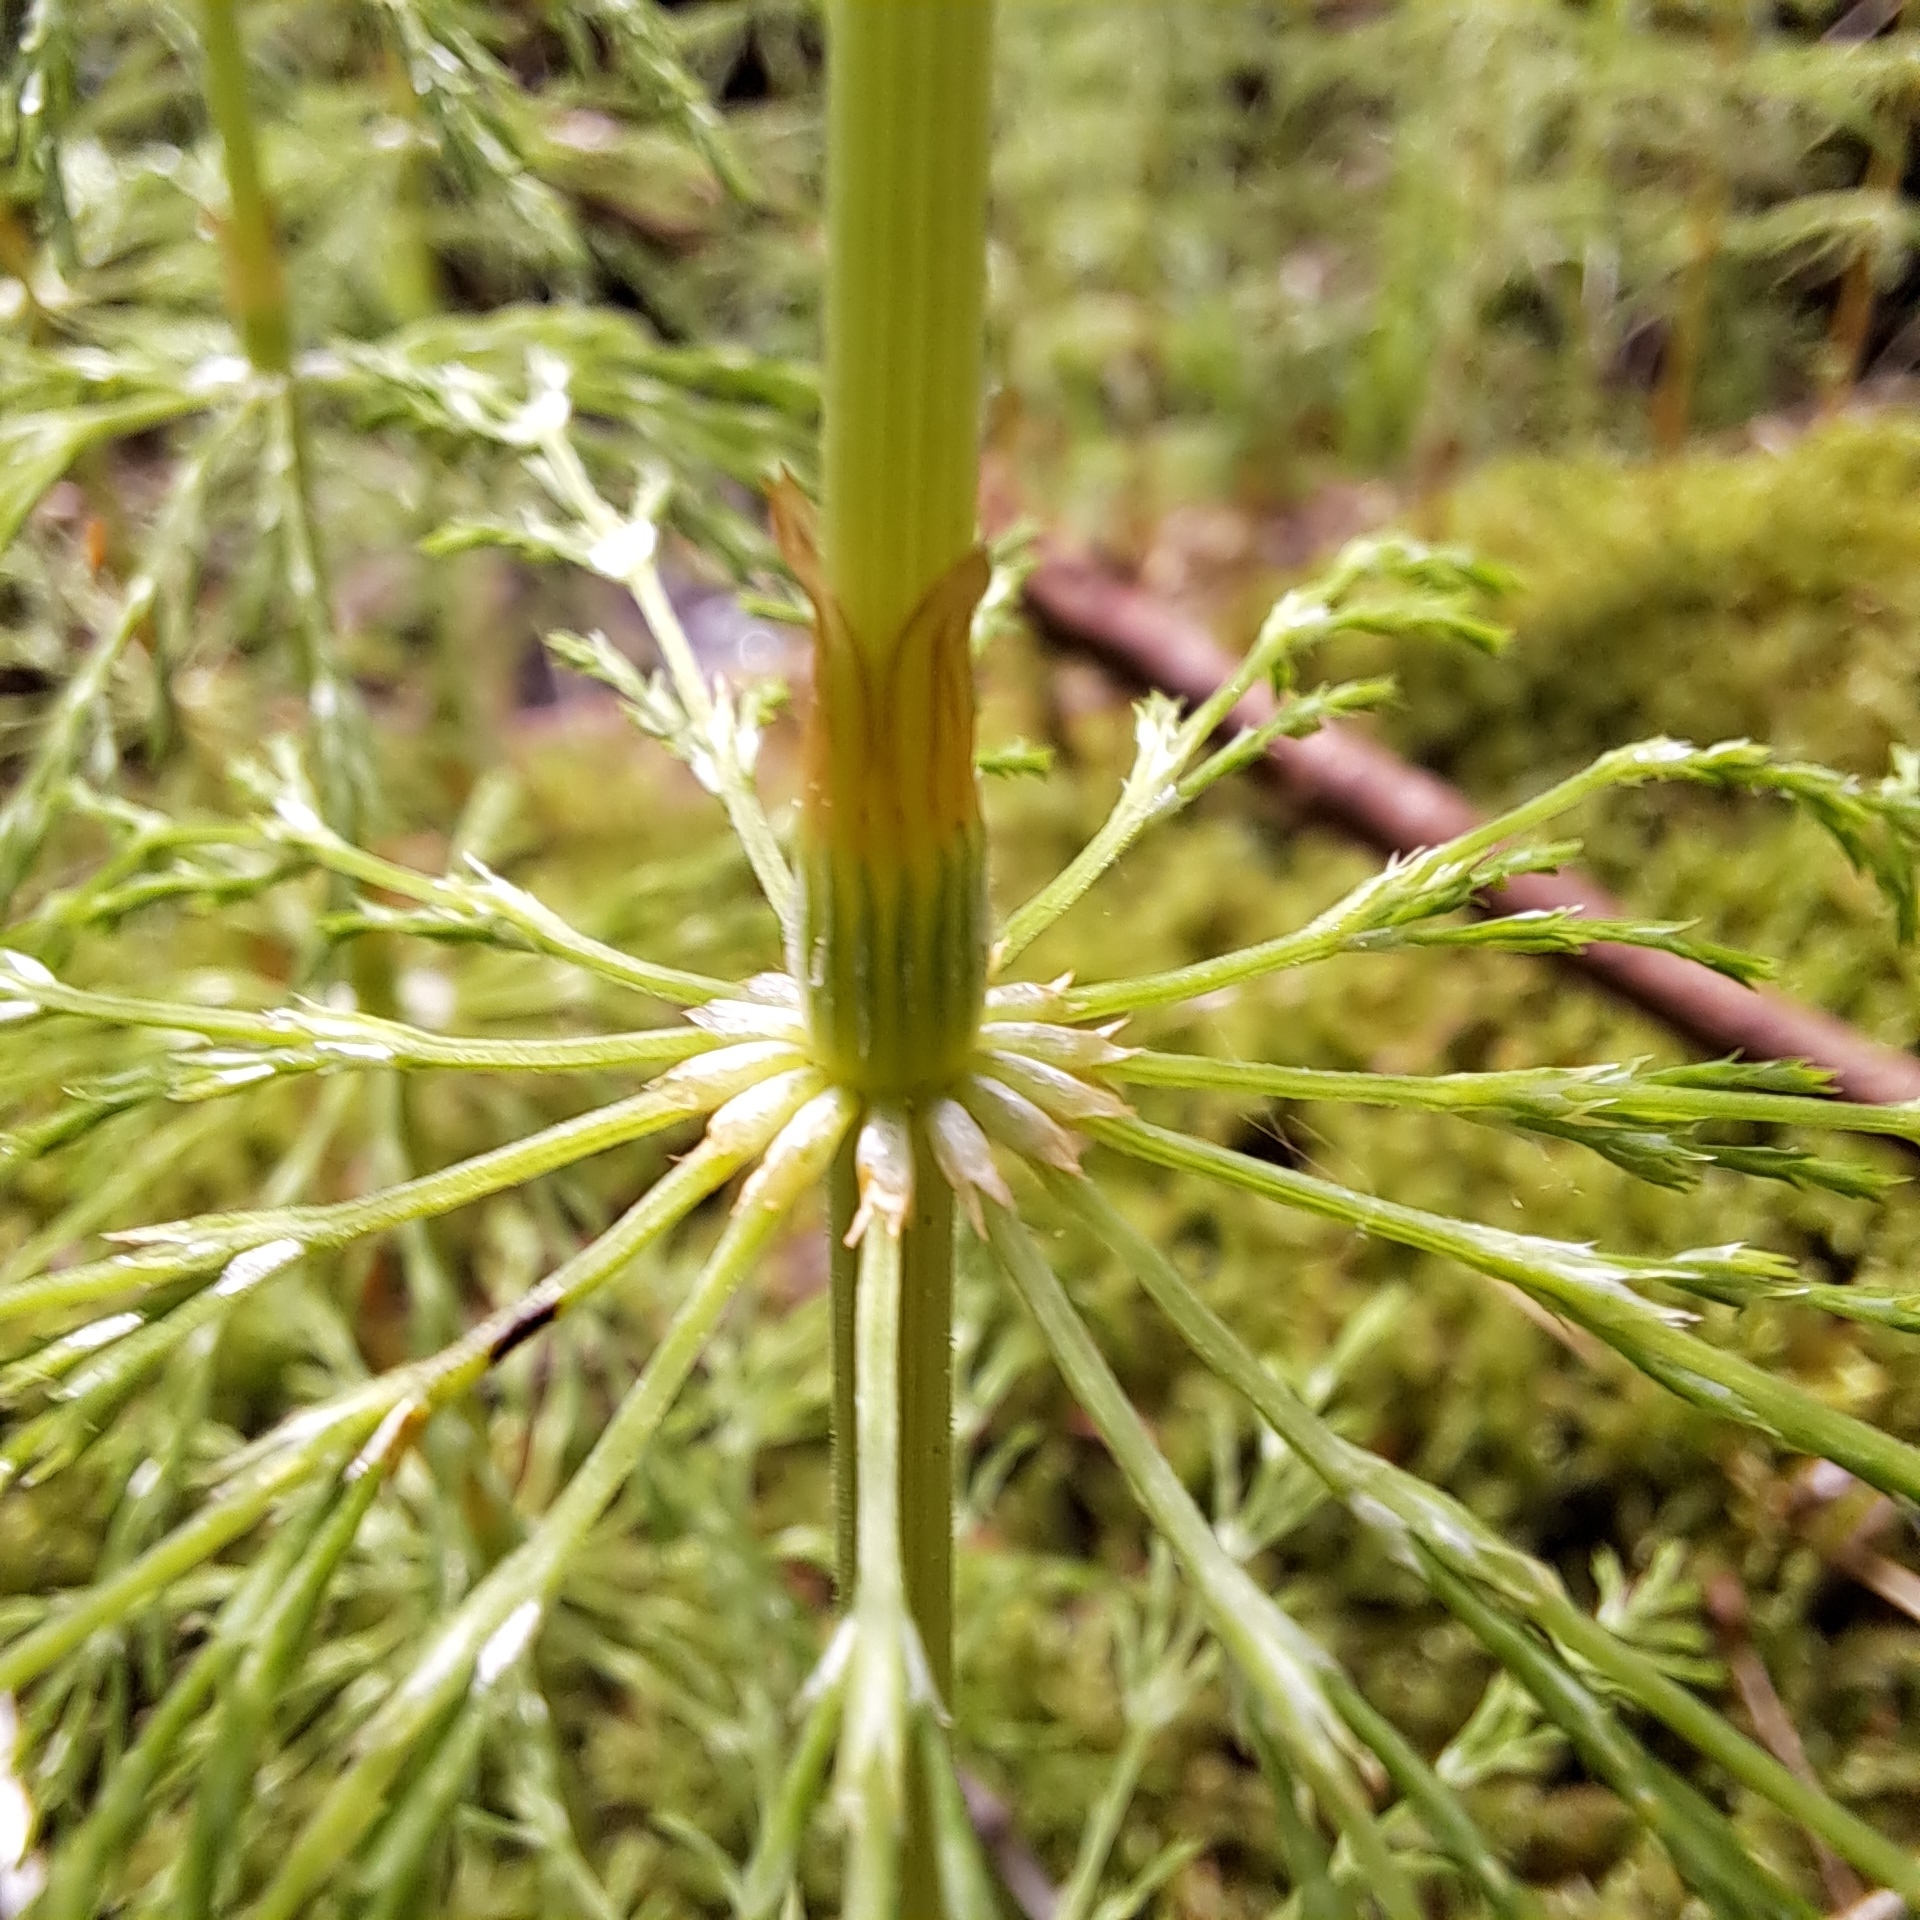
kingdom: Plantae
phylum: Tracheophyta
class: Polypodiopsida
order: Equisetales
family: Equisetaceae
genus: Equisetum
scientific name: Equisetum sylvaticum
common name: Wood horsetail
